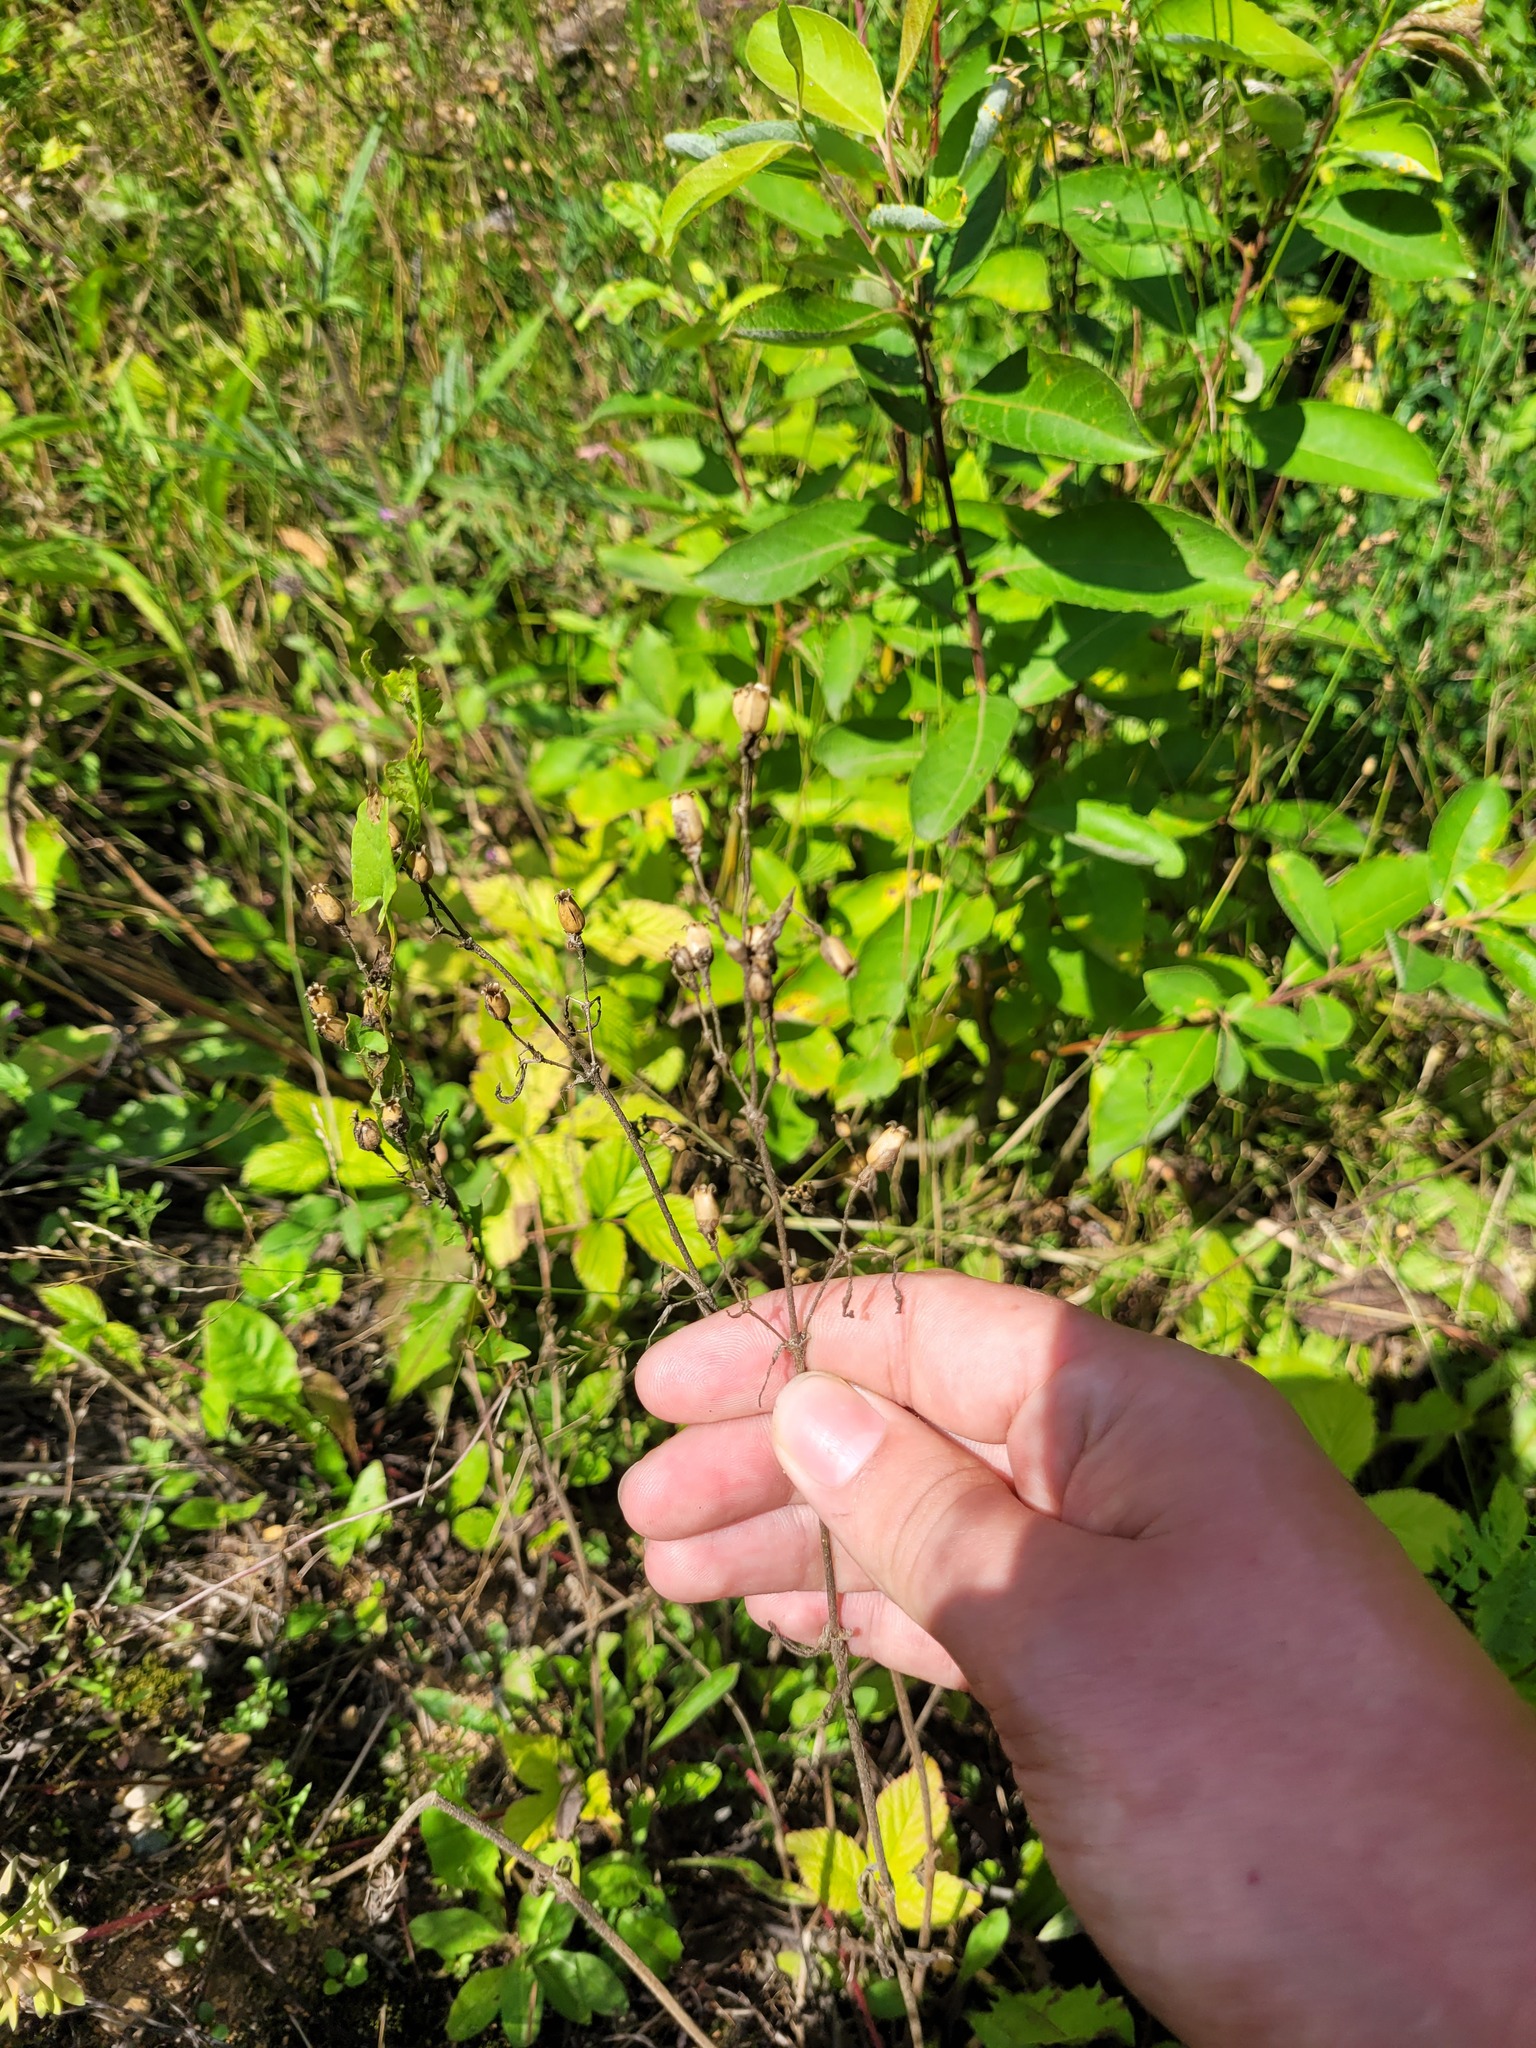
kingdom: Plantae
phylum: Tracheophyta
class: Magnoliopsida
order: Caryophyllales
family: Caryophyllaceae
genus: Silene
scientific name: Silene nutans
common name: Nottingham catchfly
